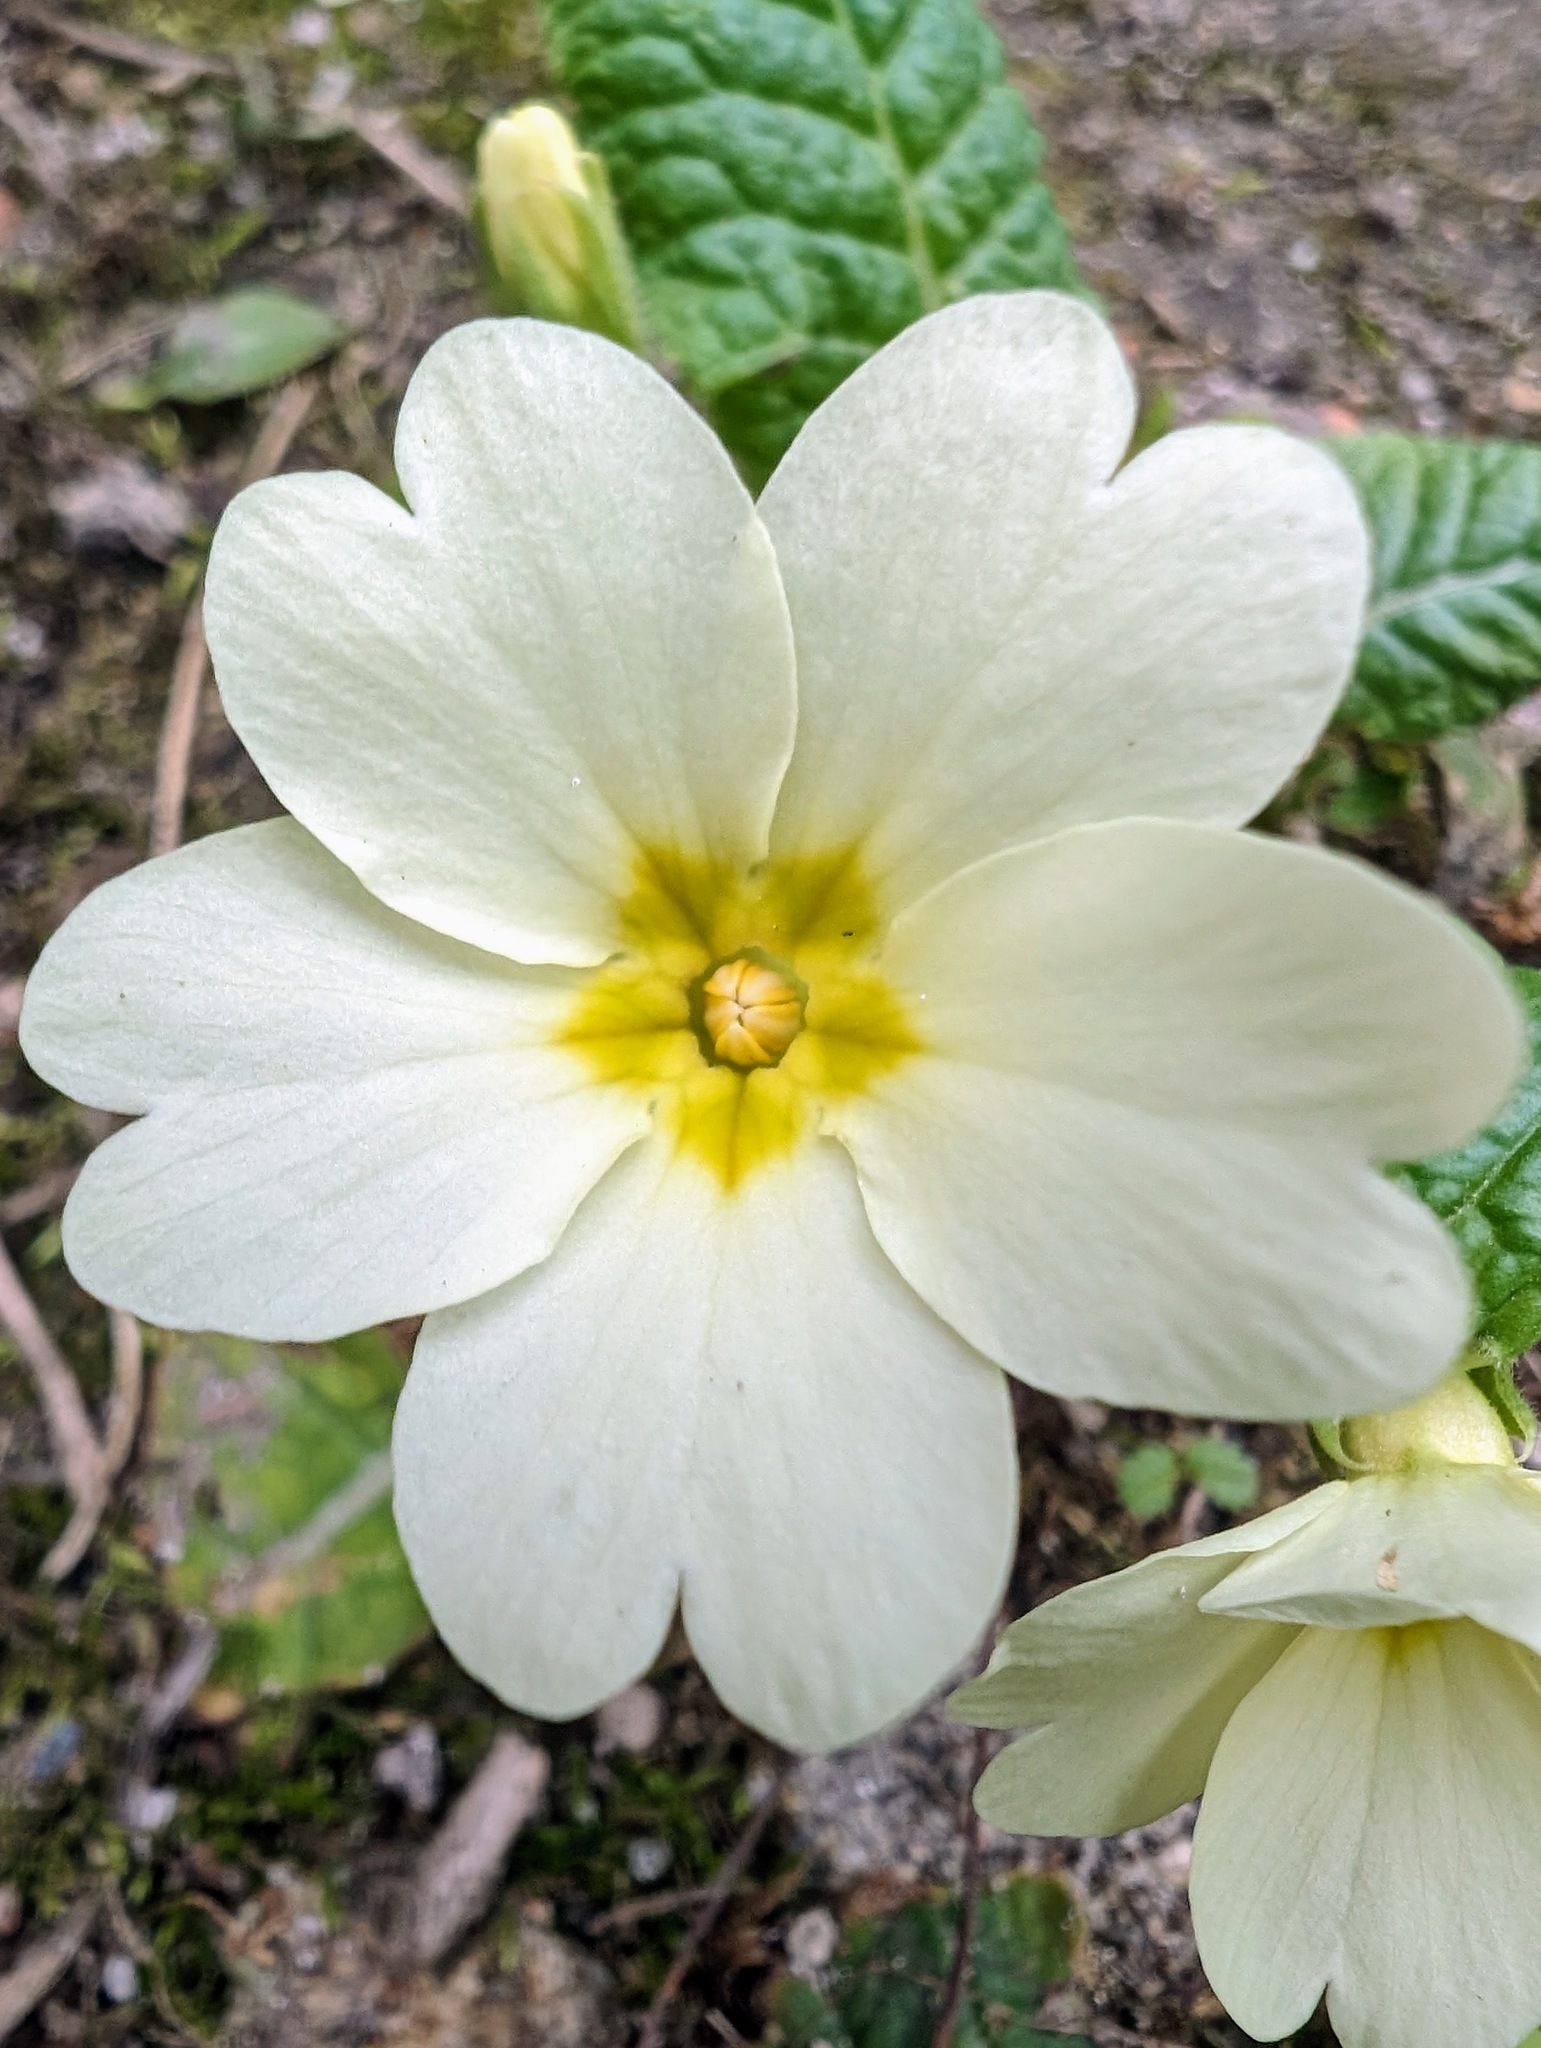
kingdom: Plantae
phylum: Tracheophyta
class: Magnoliopsida
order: Ericales
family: Primulaceae
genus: Primula
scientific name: Primula vulgaris
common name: Primrose
